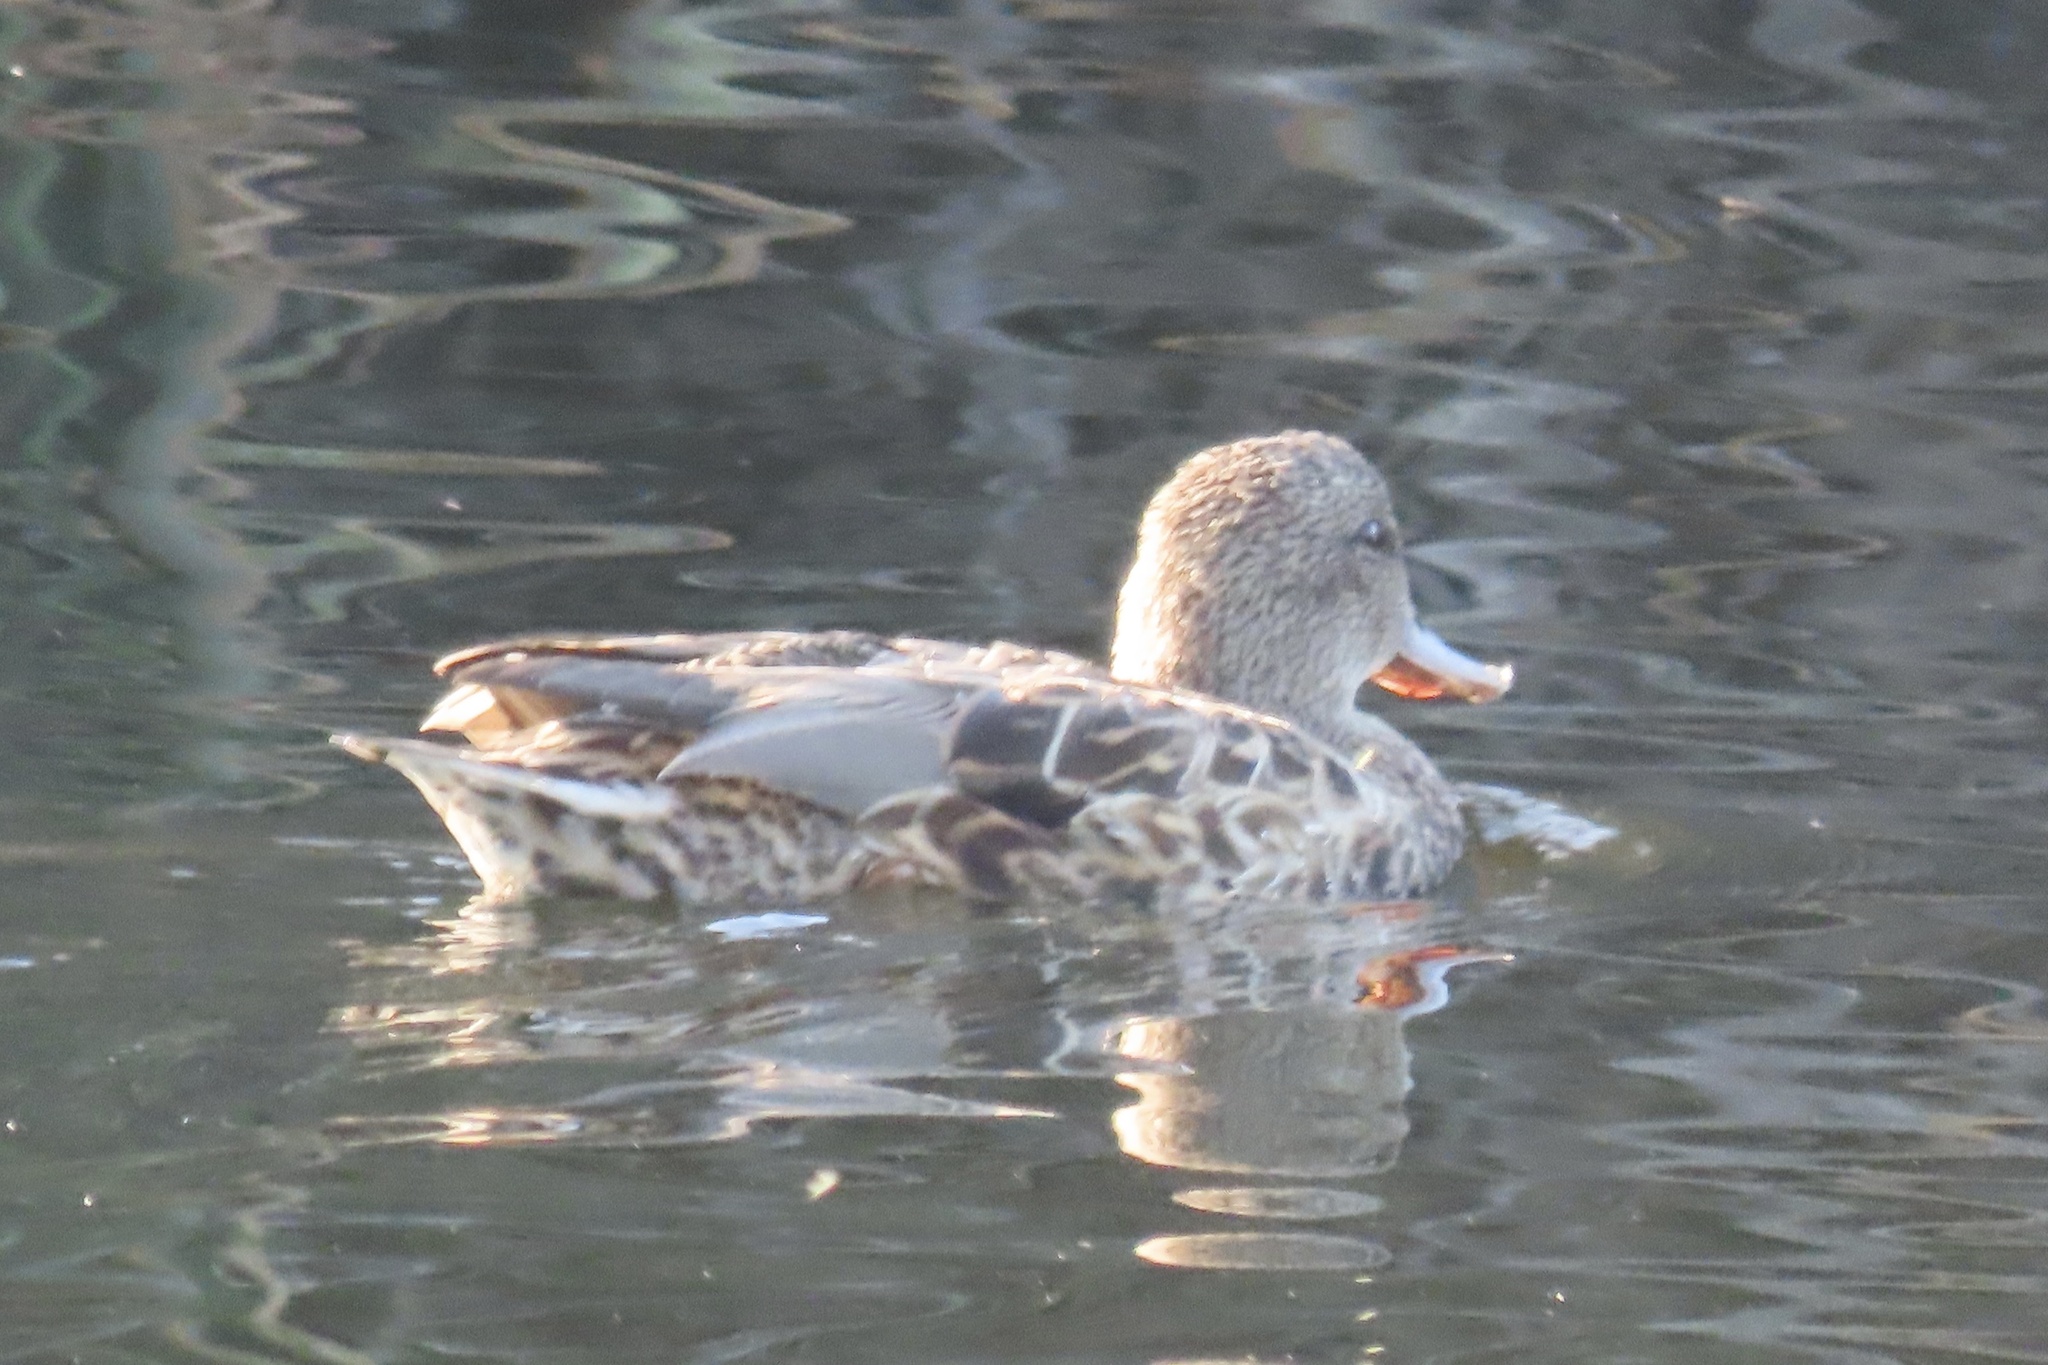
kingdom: Animalia
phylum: Chordata
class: Aves
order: Anseriformes
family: Anatidae
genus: Mareca
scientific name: Mareca strepera
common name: Gadwall
